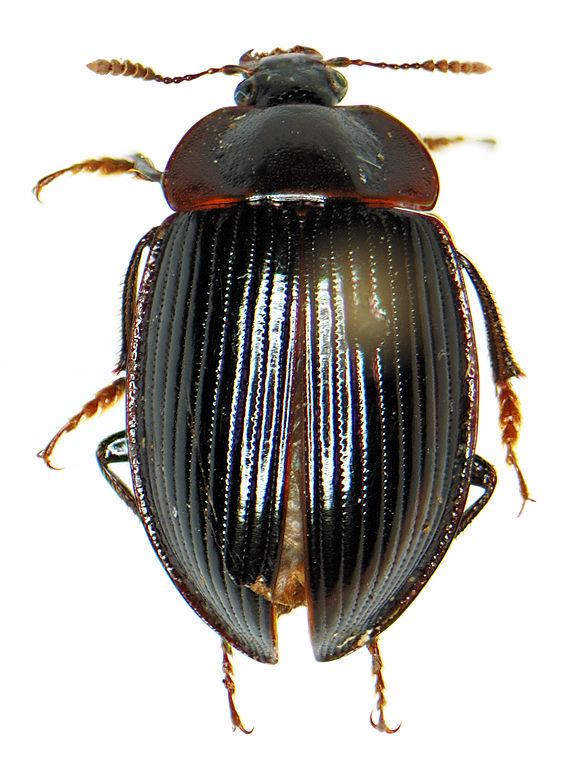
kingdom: Animalia
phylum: Arthropoda
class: Insecta
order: Coleoptera
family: Agyrtidae
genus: Necrophilus
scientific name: Necrophilus hydrophiloides
